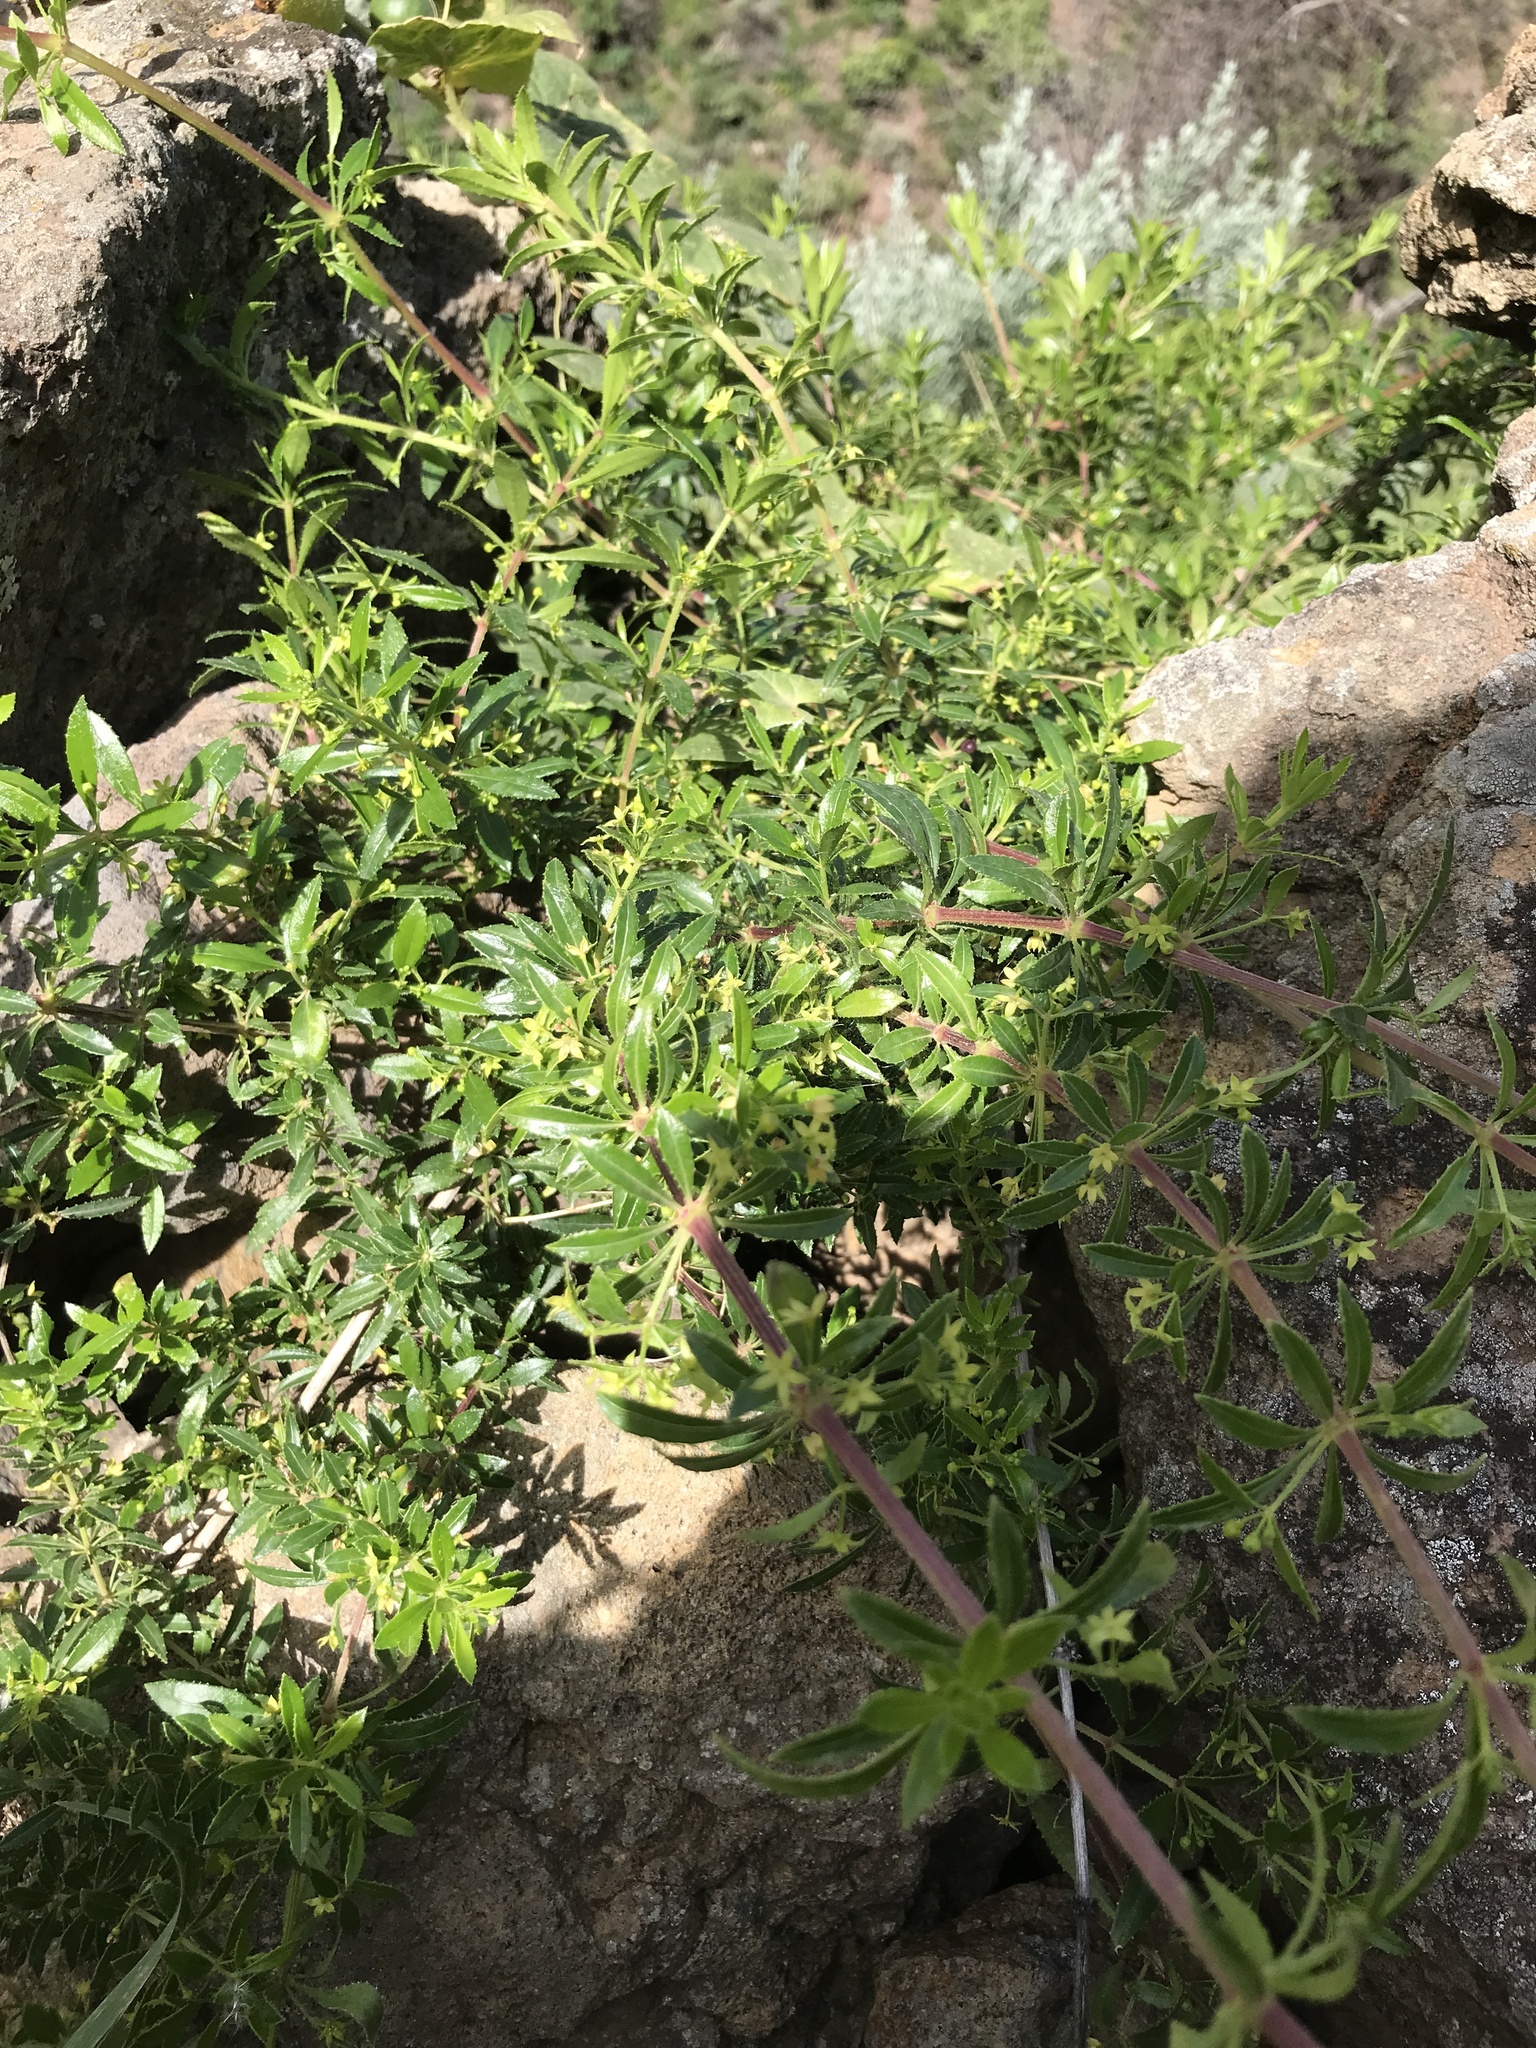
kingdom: Plantae
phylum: Tracheophyta
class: Magnoliopsida
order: Gentianales
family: Rubiaceae
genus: Rubia
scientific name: Rubia fruticosa
